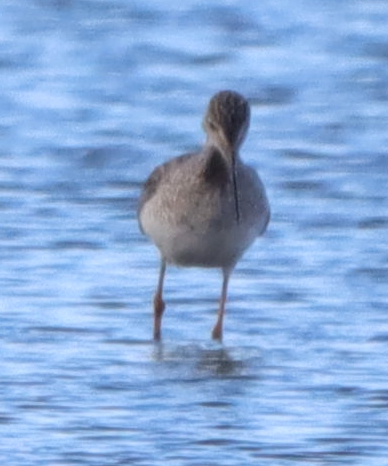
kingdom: Animalia
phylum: Chordata
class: Aves
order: Charadriiformes
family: Scolopacidae
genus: Tringa
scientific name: Tringa melanoleuca
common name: Greater yellowlegs
